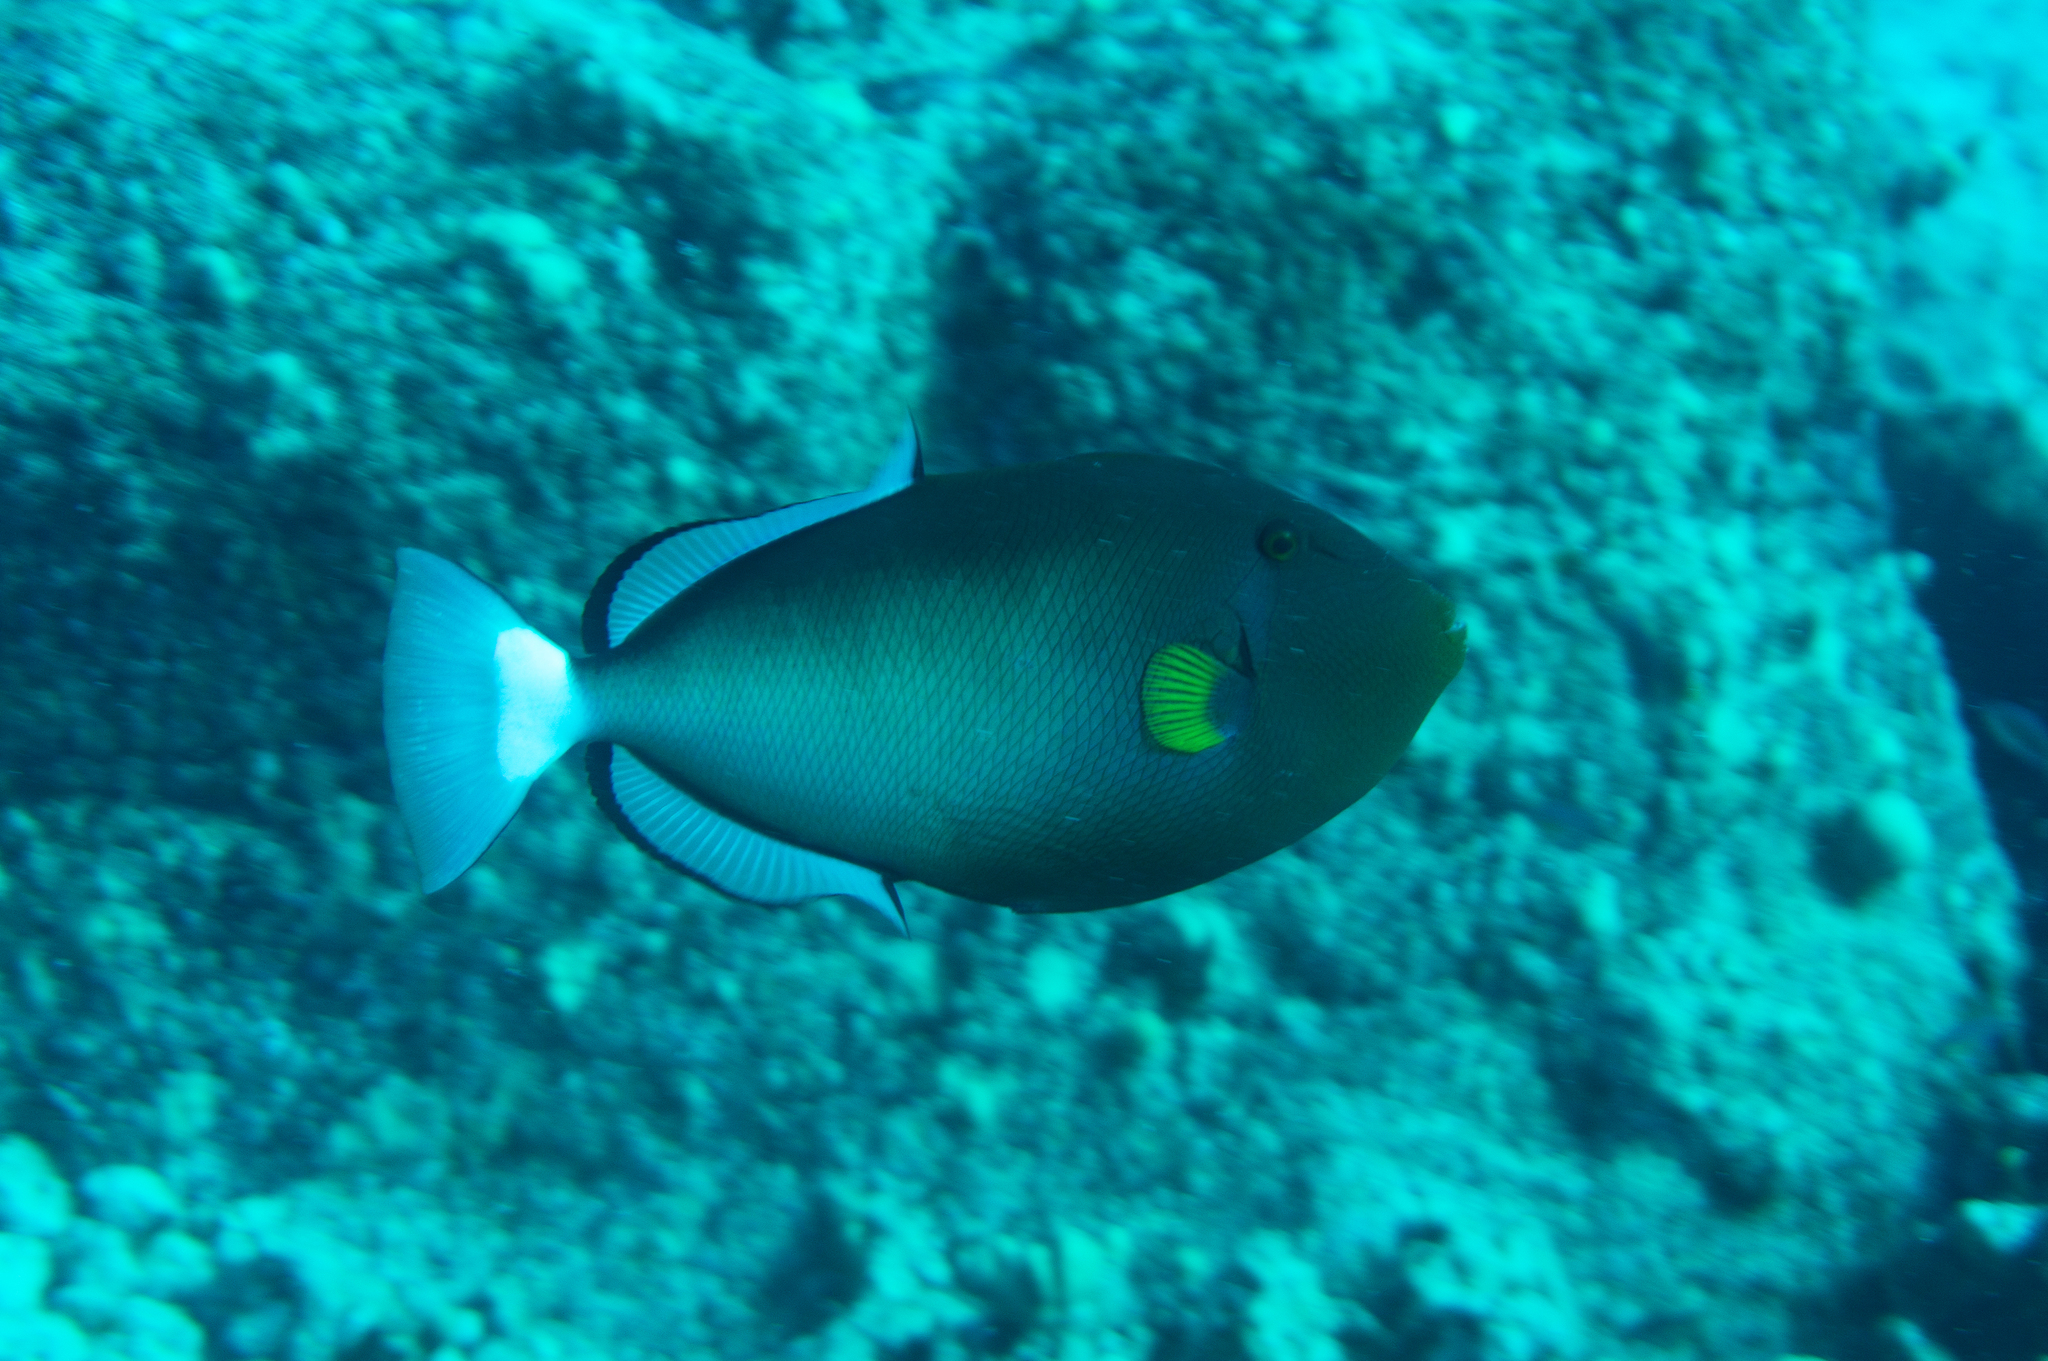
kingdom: Animalia
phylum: Chordata
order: Tetraodontiformes
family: Balistidae
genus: Melichthys
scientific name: Melichthys vidua
